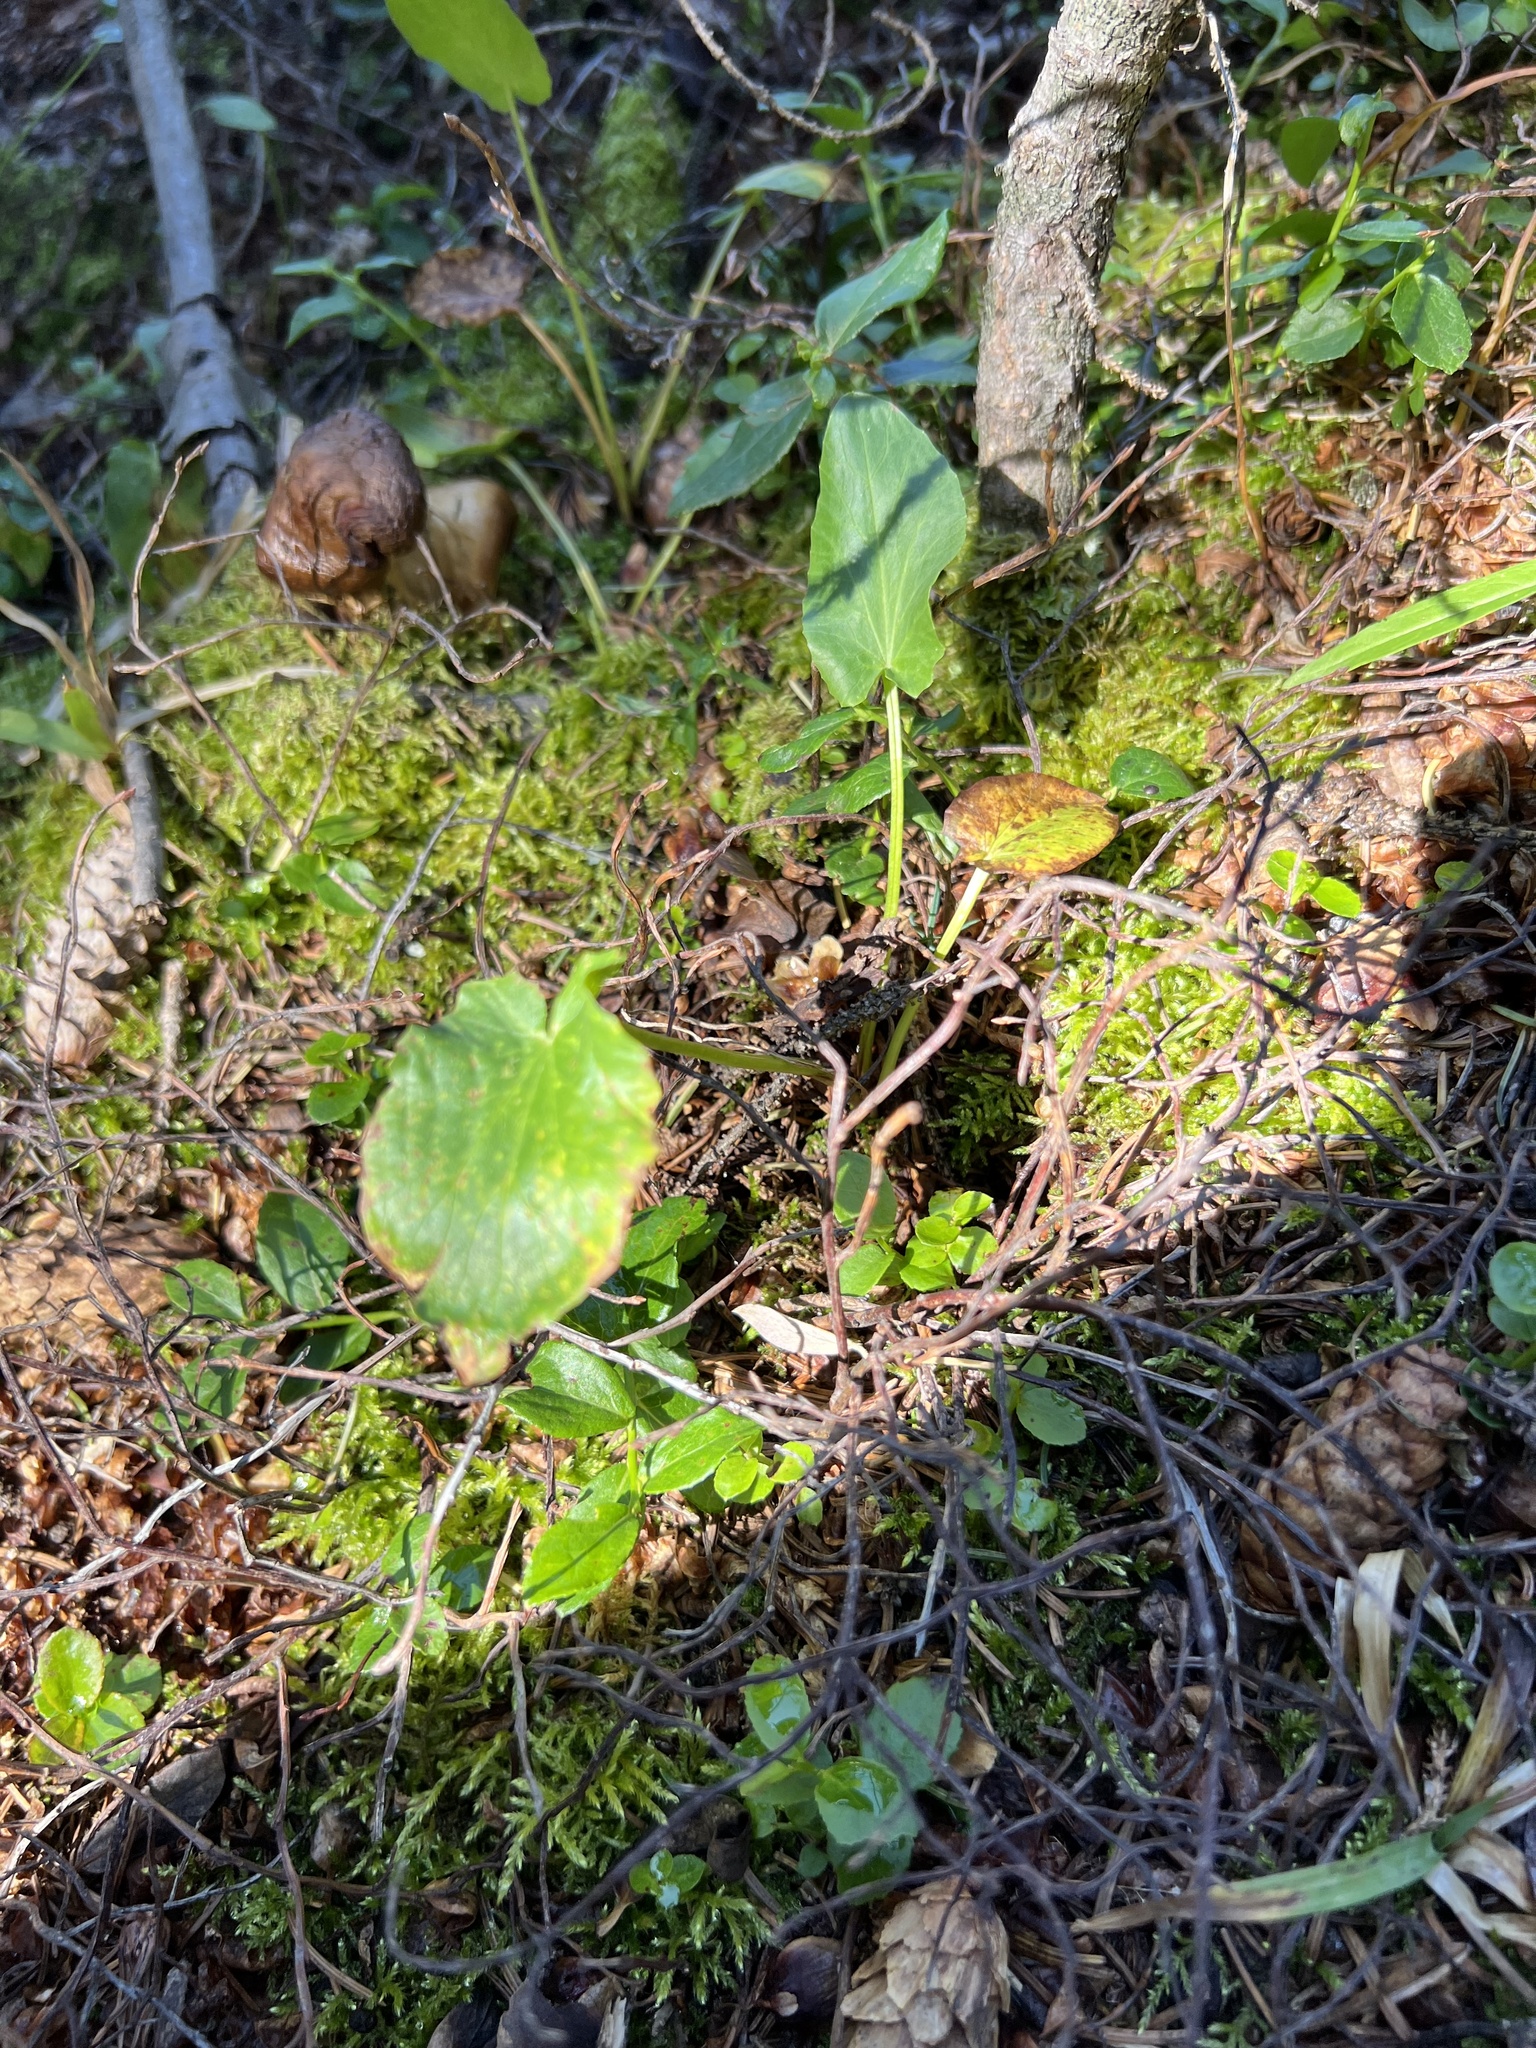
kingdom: Plantae
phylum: Tracheophyta
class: Magnoliopsida
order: Ranunculales
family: Ranunculaceae
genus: Caltha
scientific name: Caltha leptosepala
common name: Elkslip
